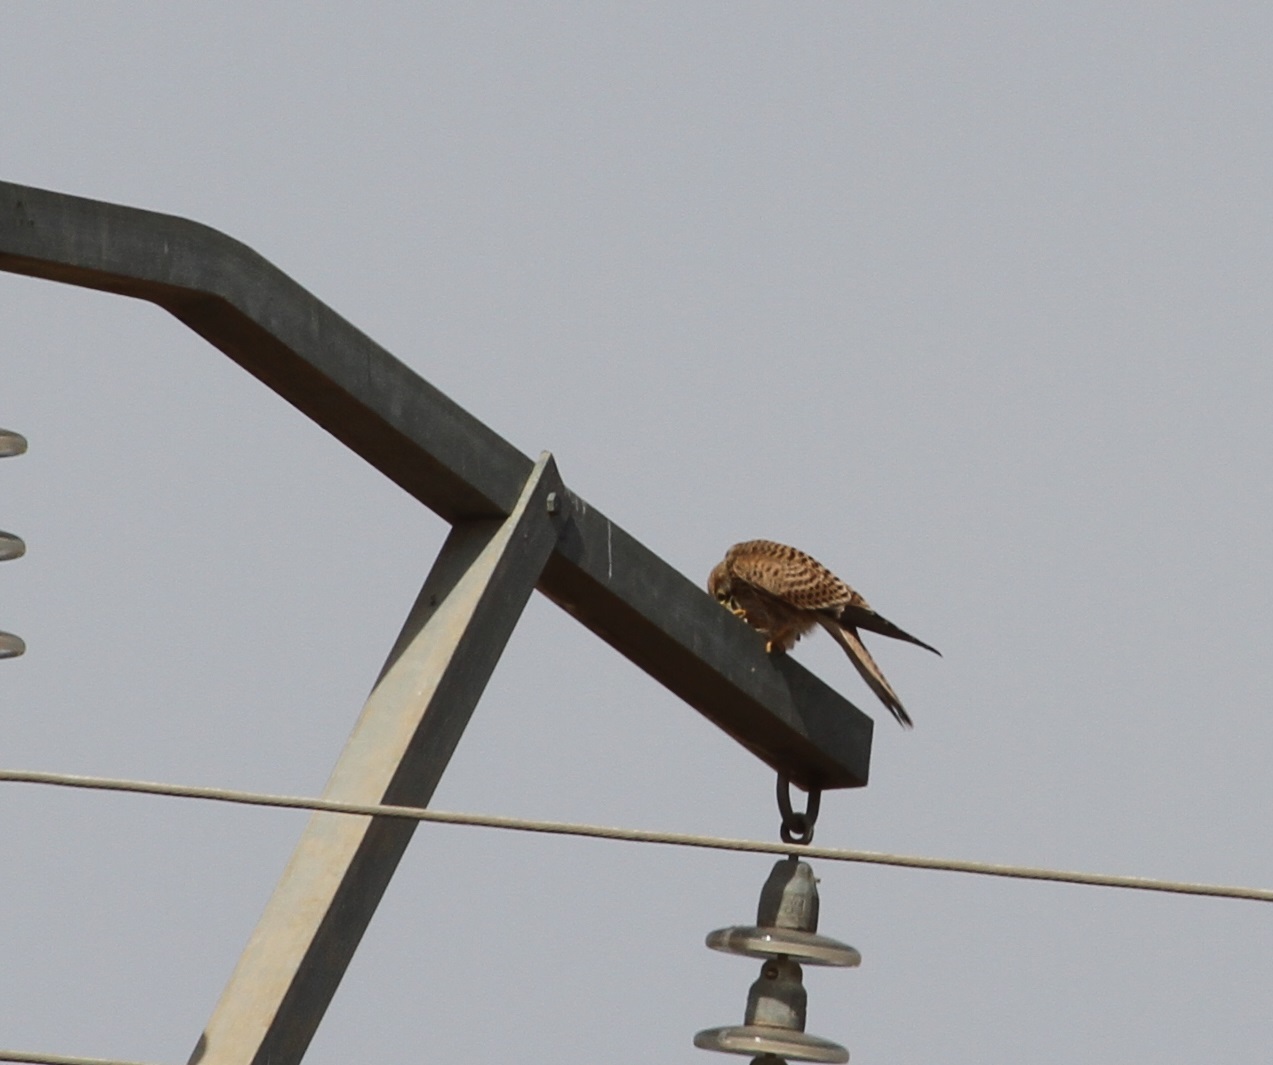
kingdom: Animalia
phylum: Chordata
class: Aves
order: Falconiformes
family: Falconidae
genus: Falco
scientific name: Falco tinnunculus
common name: Common kestrel
